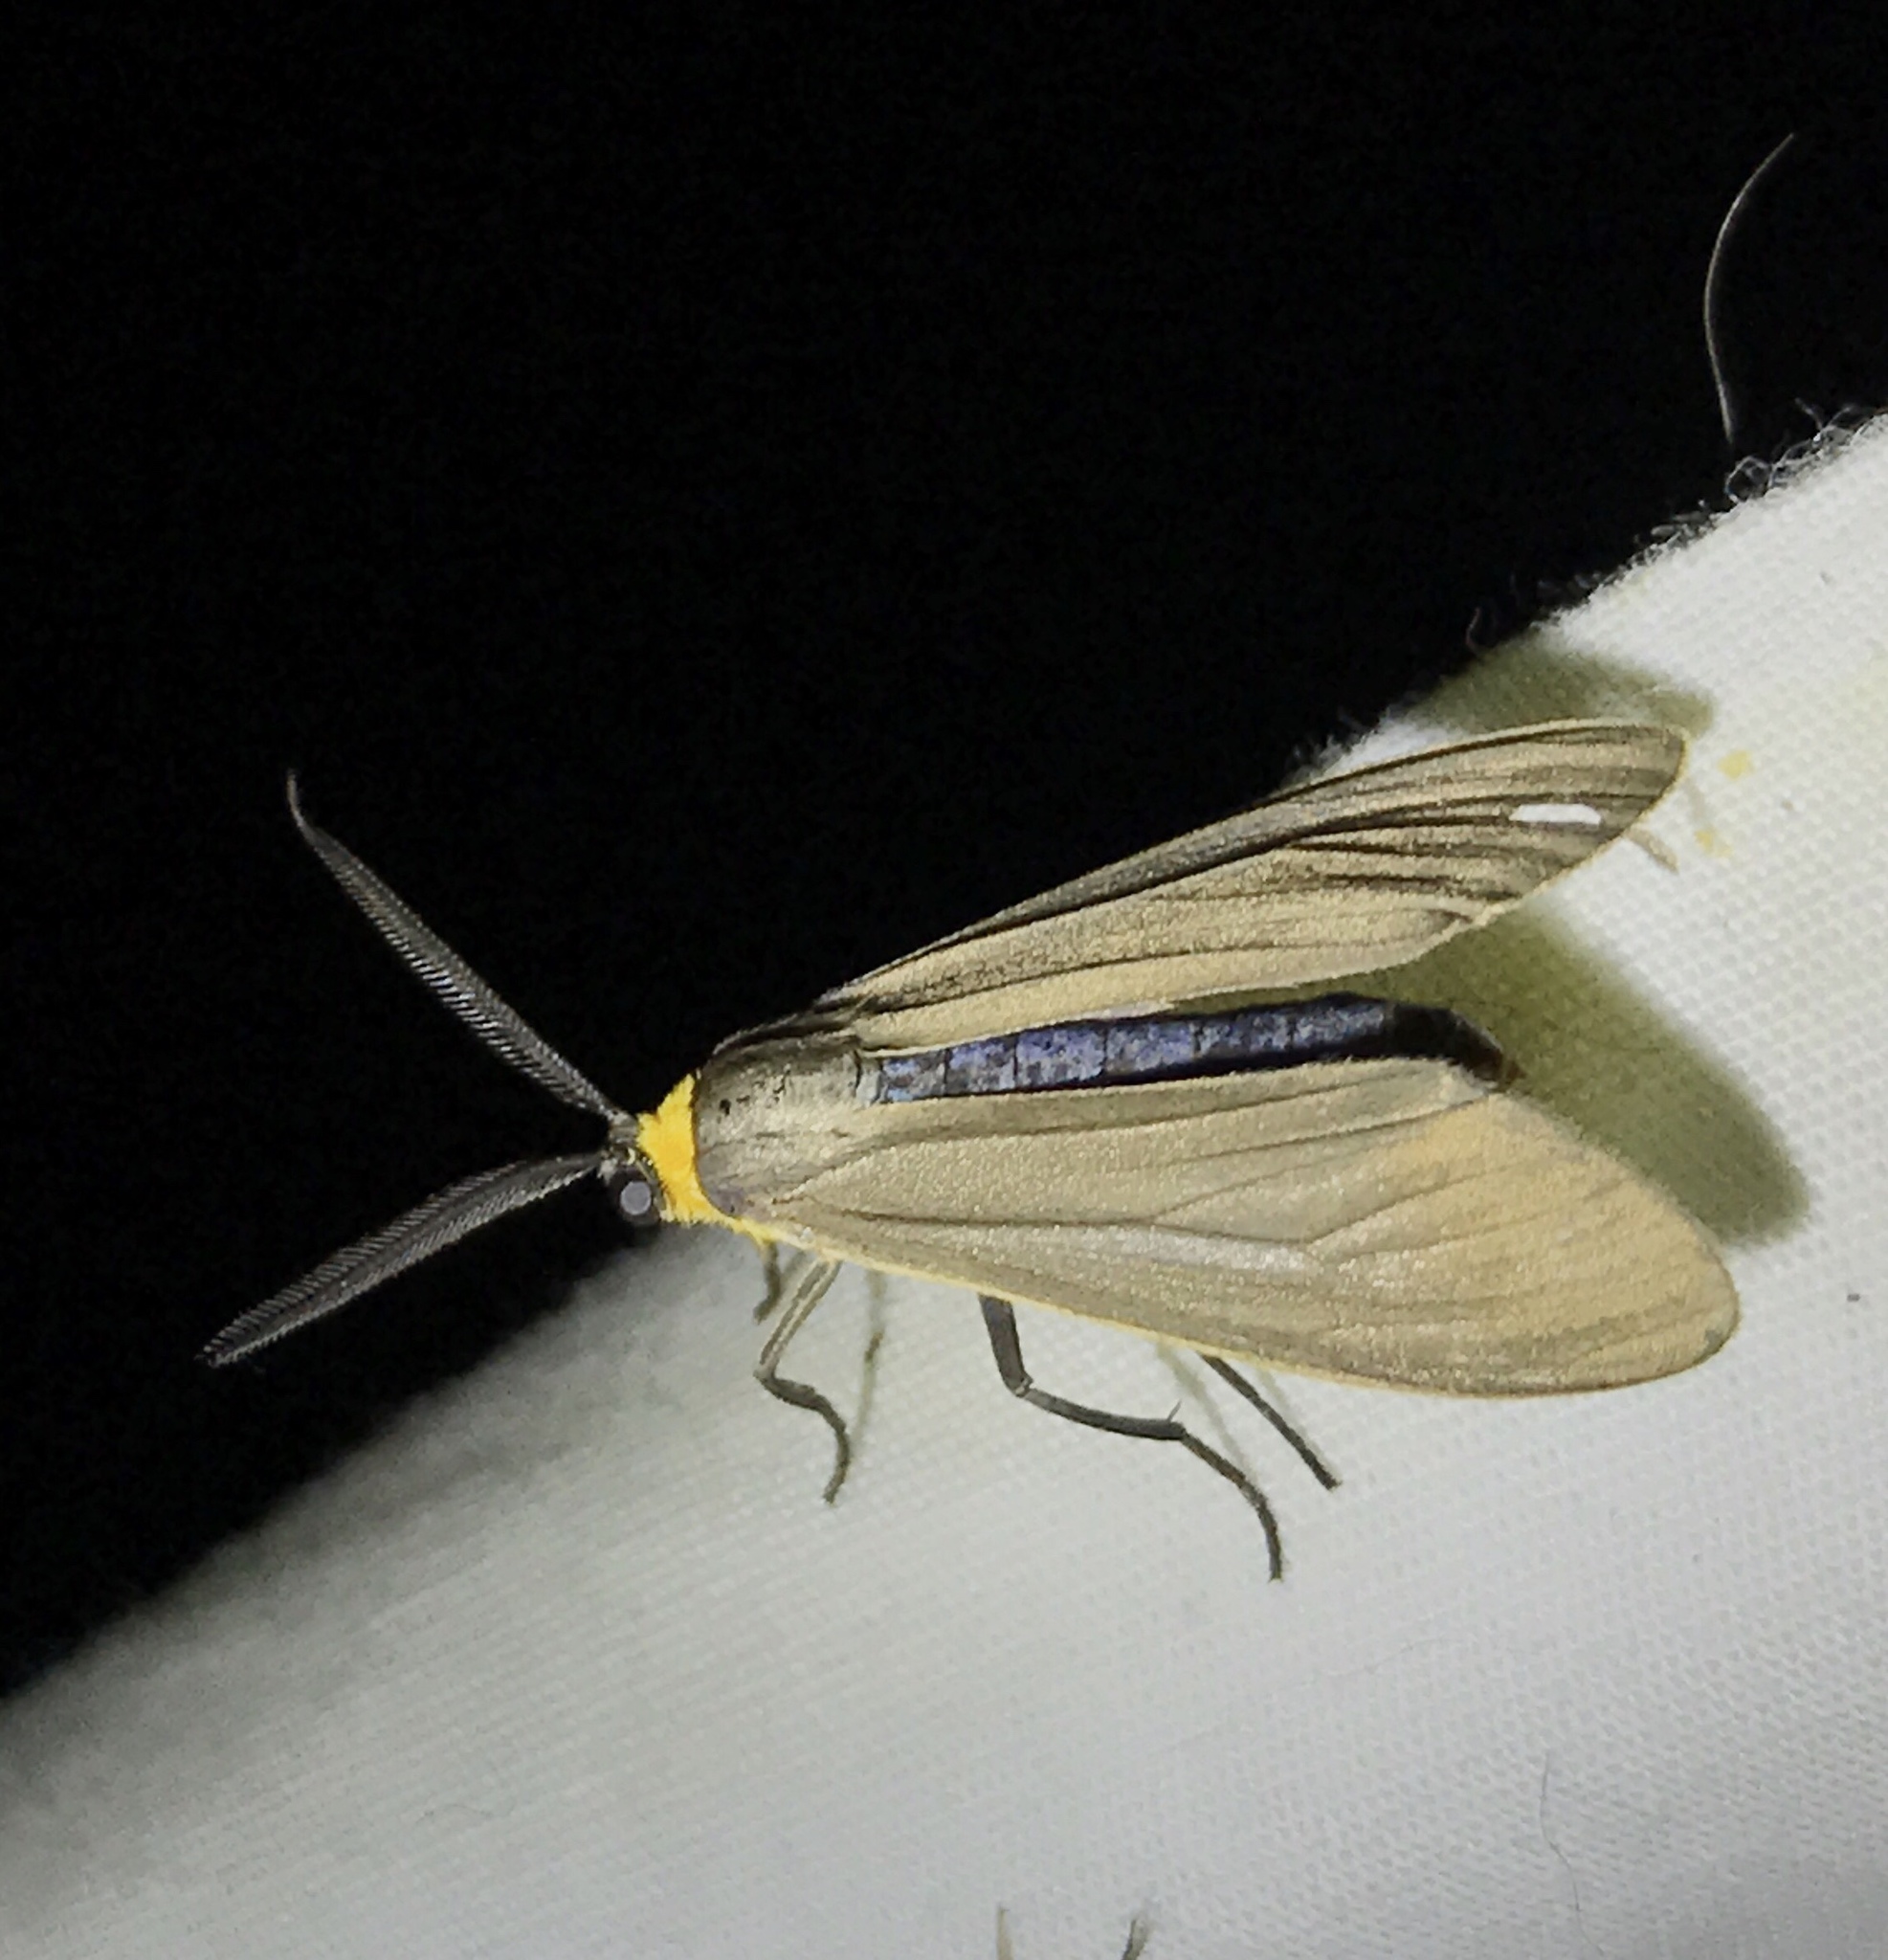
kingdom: Animalia
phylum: Arthropoda
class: Insecta
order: Lepidoptera
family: Erebidae
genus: Cisseps
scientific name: Cisseps fulvicollis
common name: Yellow-collared scape moth
